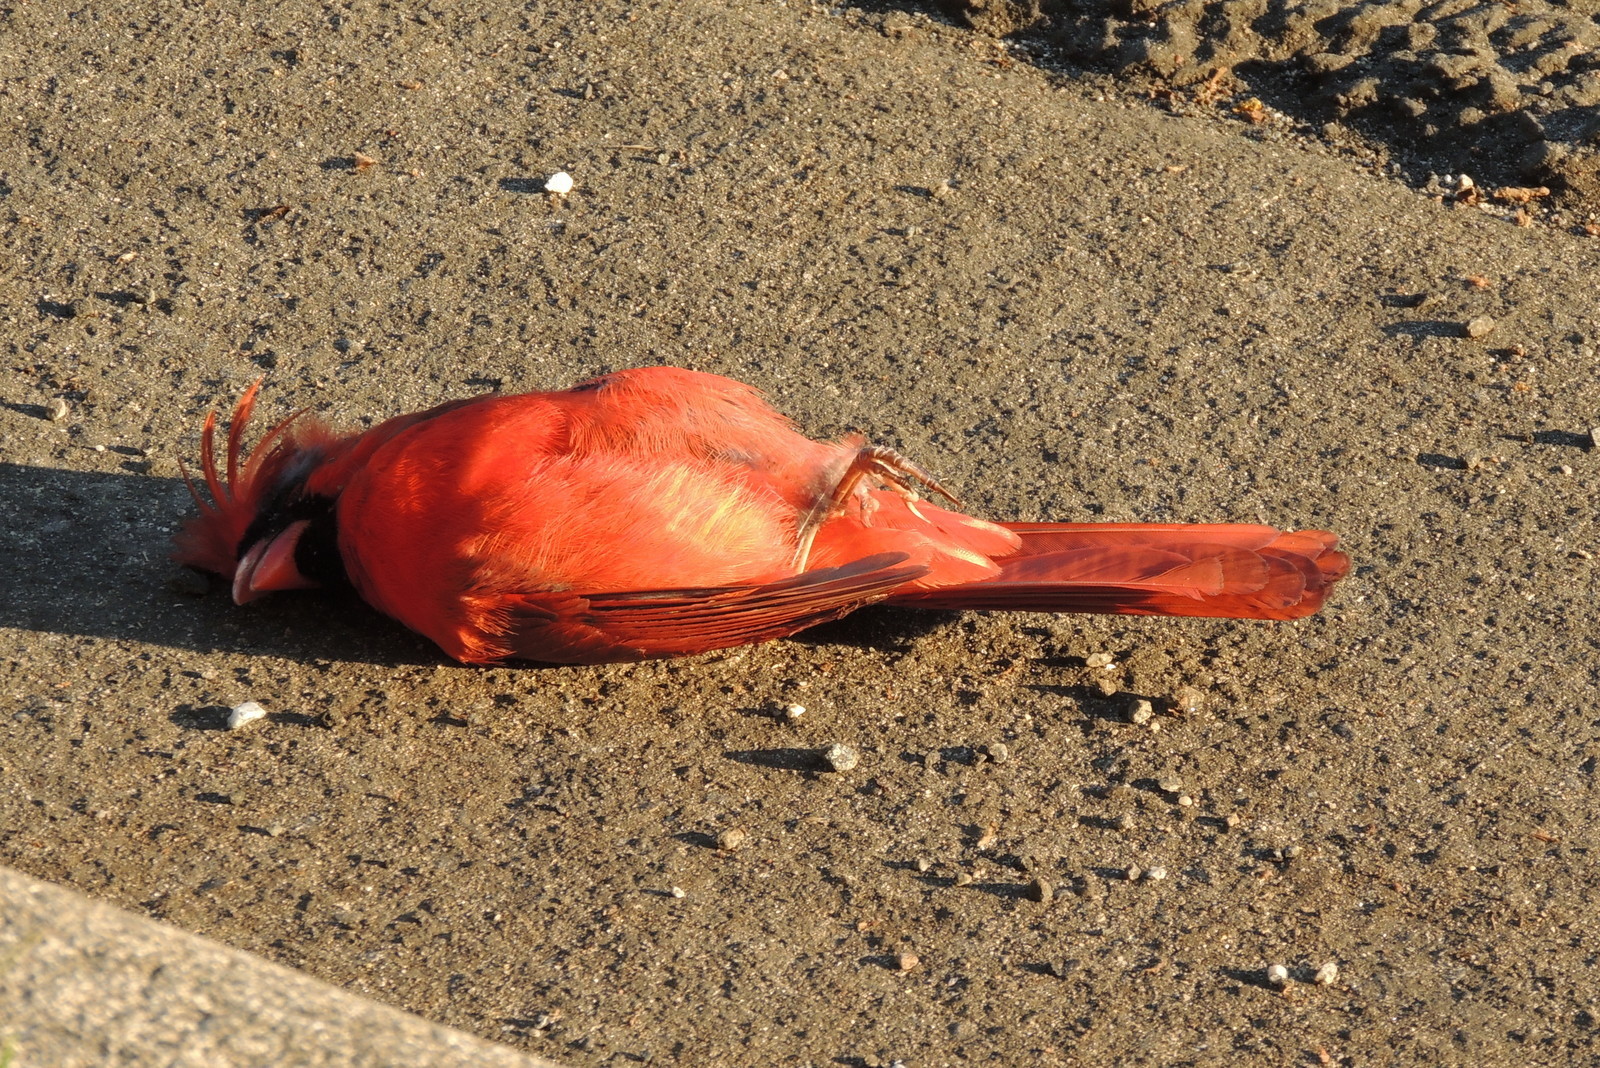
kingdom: Animalia
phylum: Chordata
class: Aves
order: Passeriformes
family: Cardinalidae
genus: Cardinalis
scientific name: Cardinalis cardinalis
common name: Northern cardinal
